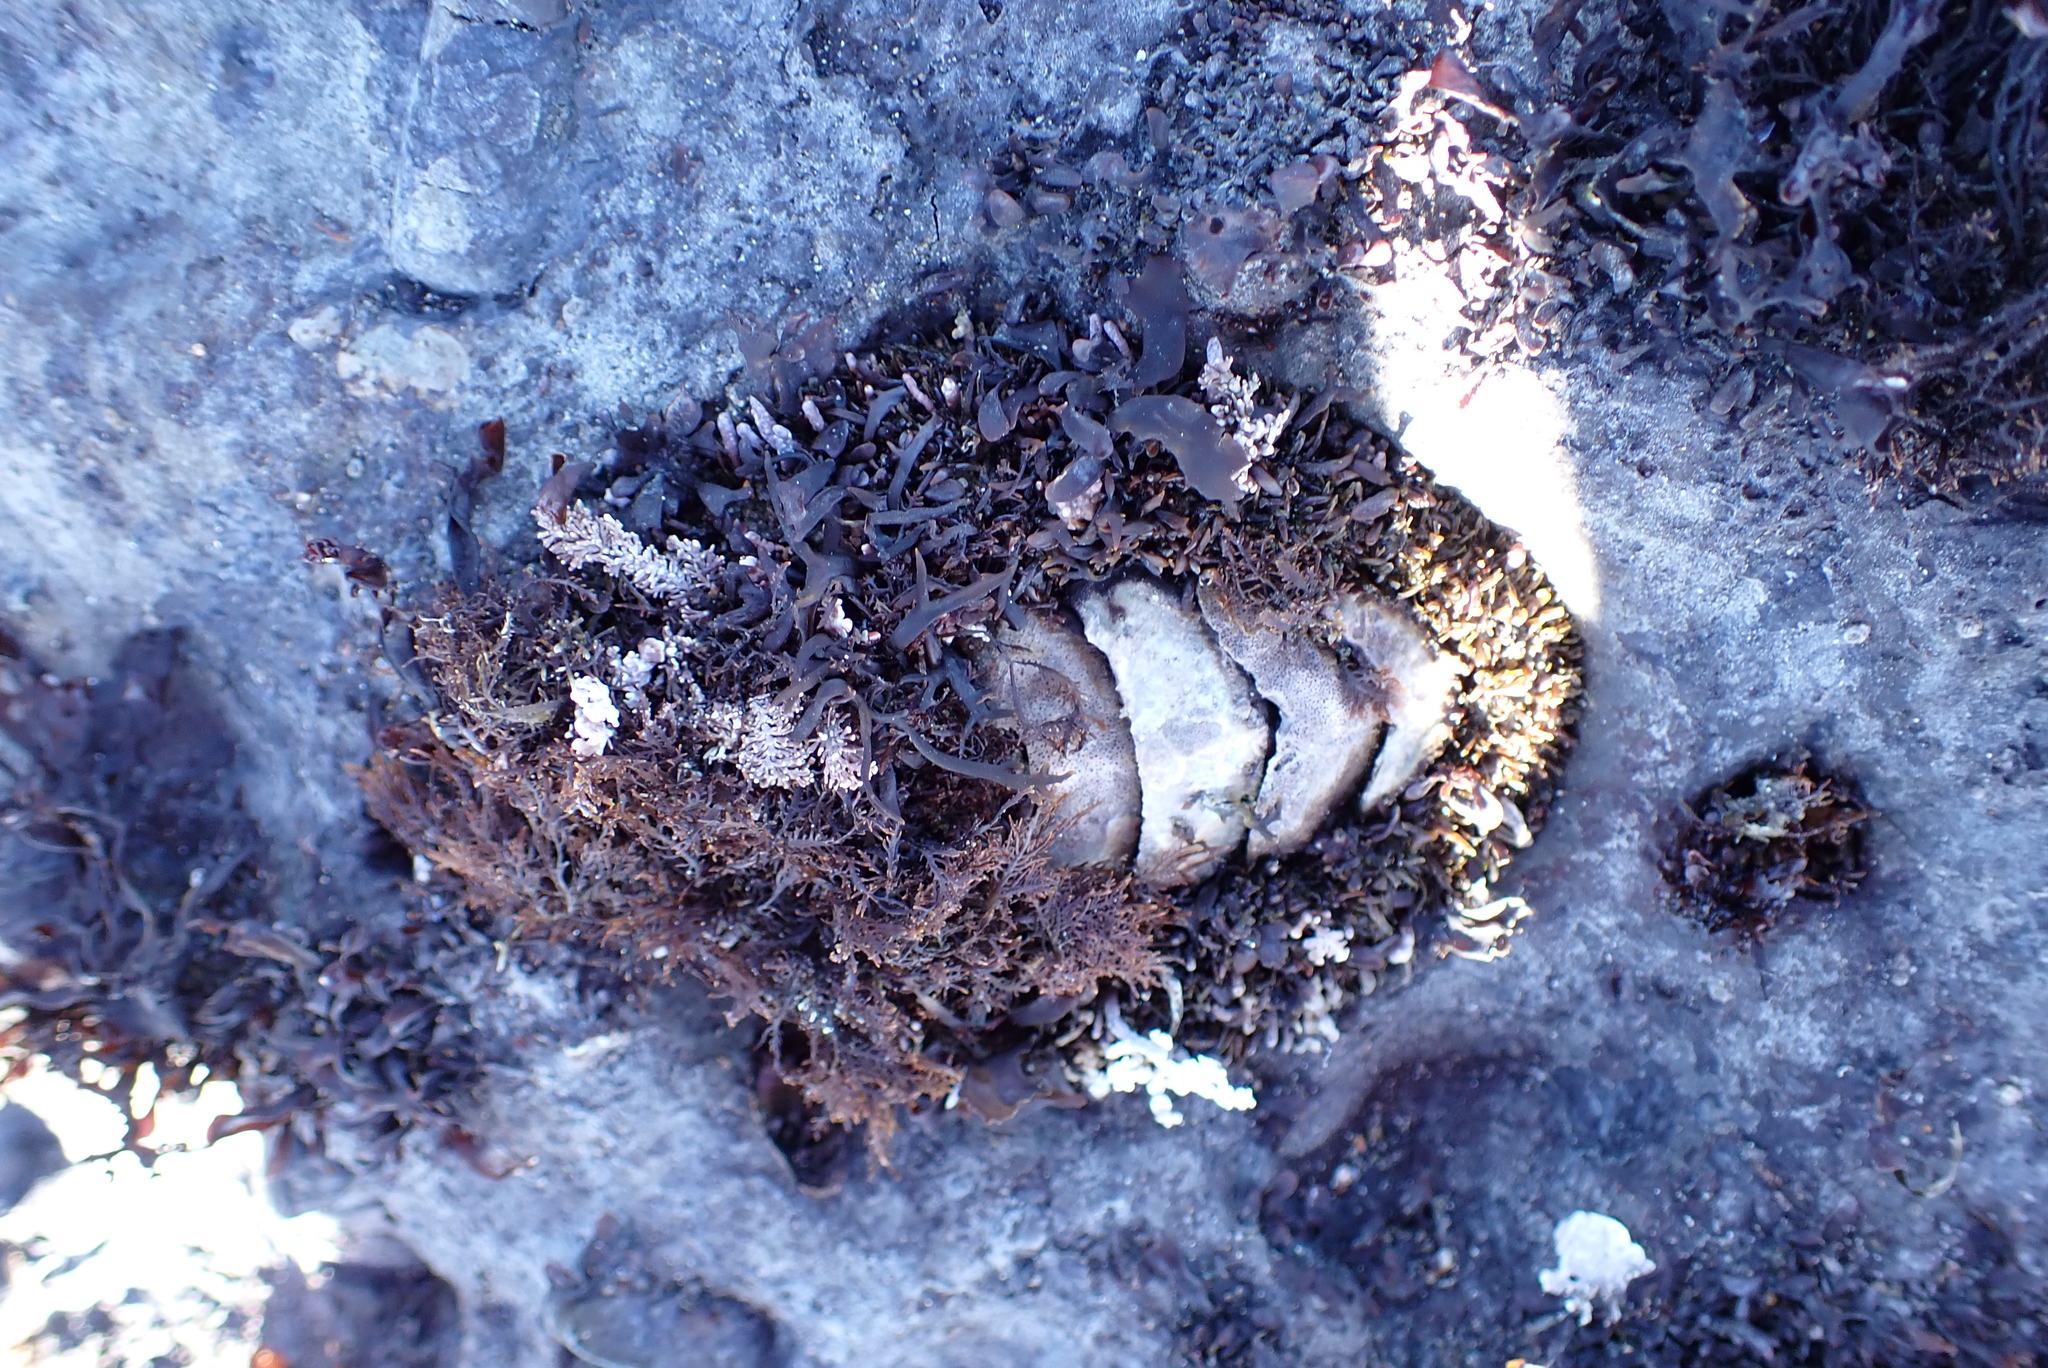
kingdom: Animalia
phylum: Mollusca
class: Polyplacophora
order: Chitonida
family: Mopaliidae
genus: Mopalia
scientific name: Mopalia muscosa
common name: Mossy chiton
